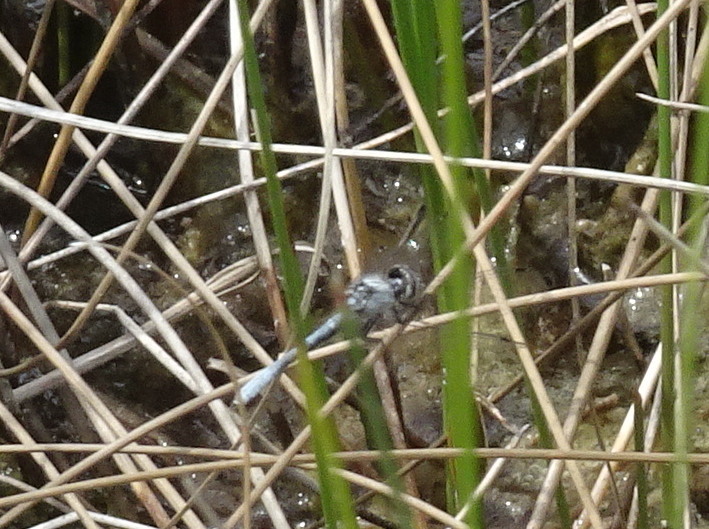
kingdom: Animalia
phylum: Arthropoda
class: Insecta
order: Odonata
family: Libellulidae
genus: Nannothemis
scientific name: Nannothemis bella
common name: Elfin skimmer
